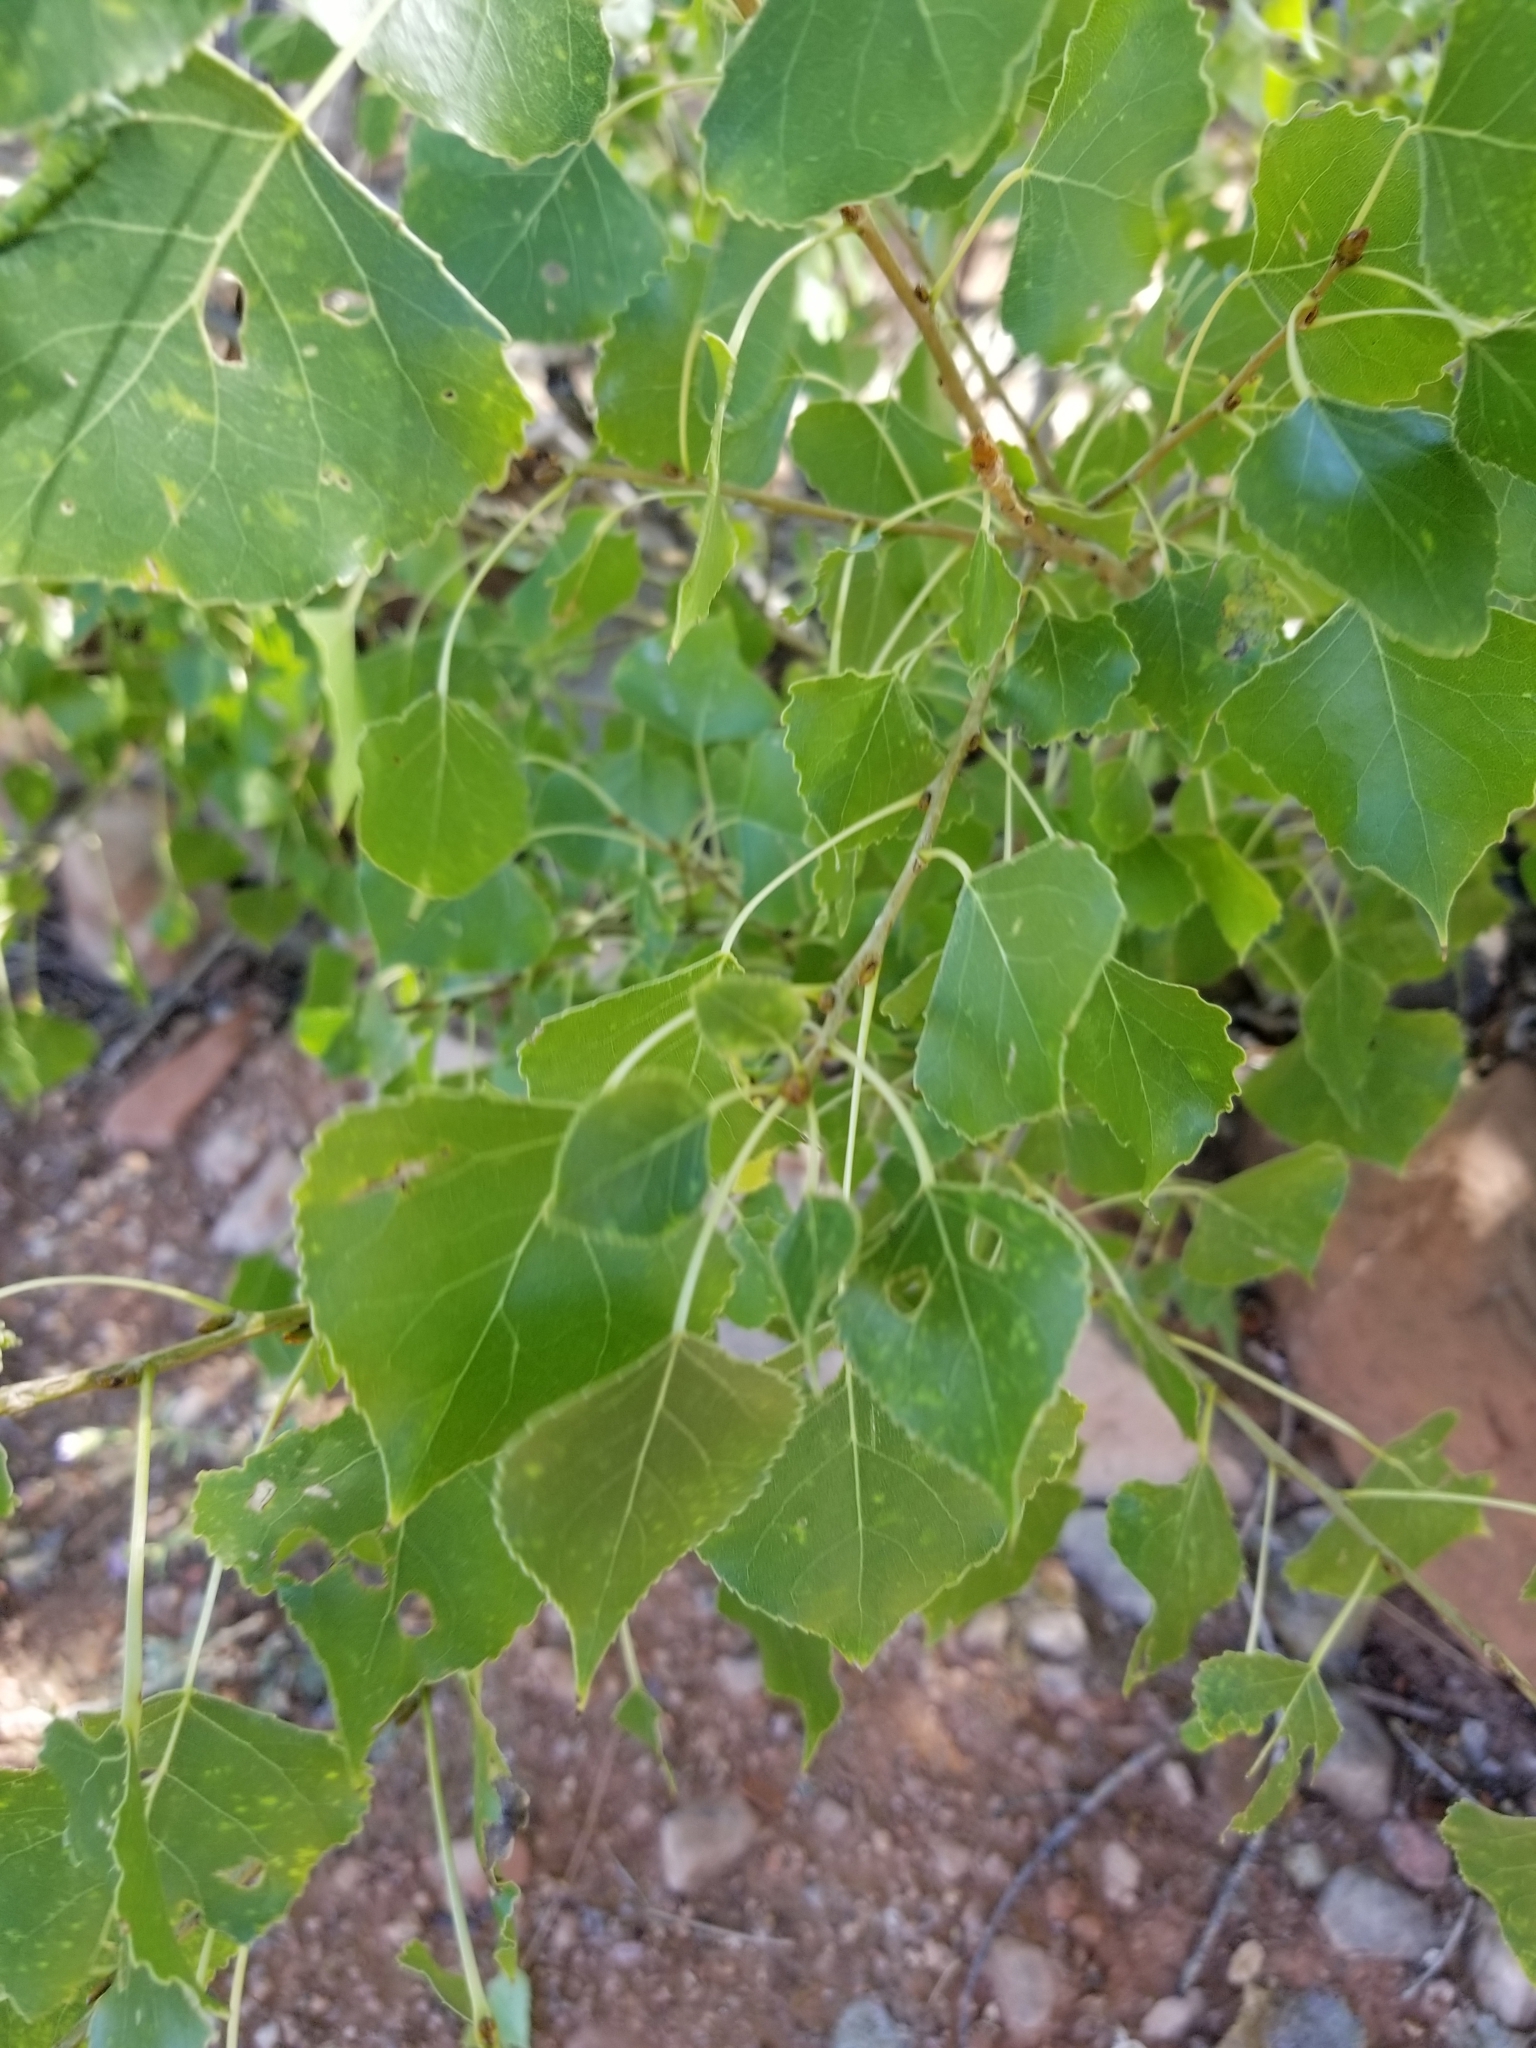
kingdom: Plantae
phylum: Tracheophyta
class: Magnoliopsida
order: Malpighiales
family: Salicaceae
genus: Populus
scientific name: Populus deltoides
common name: Eastern cottonwood
